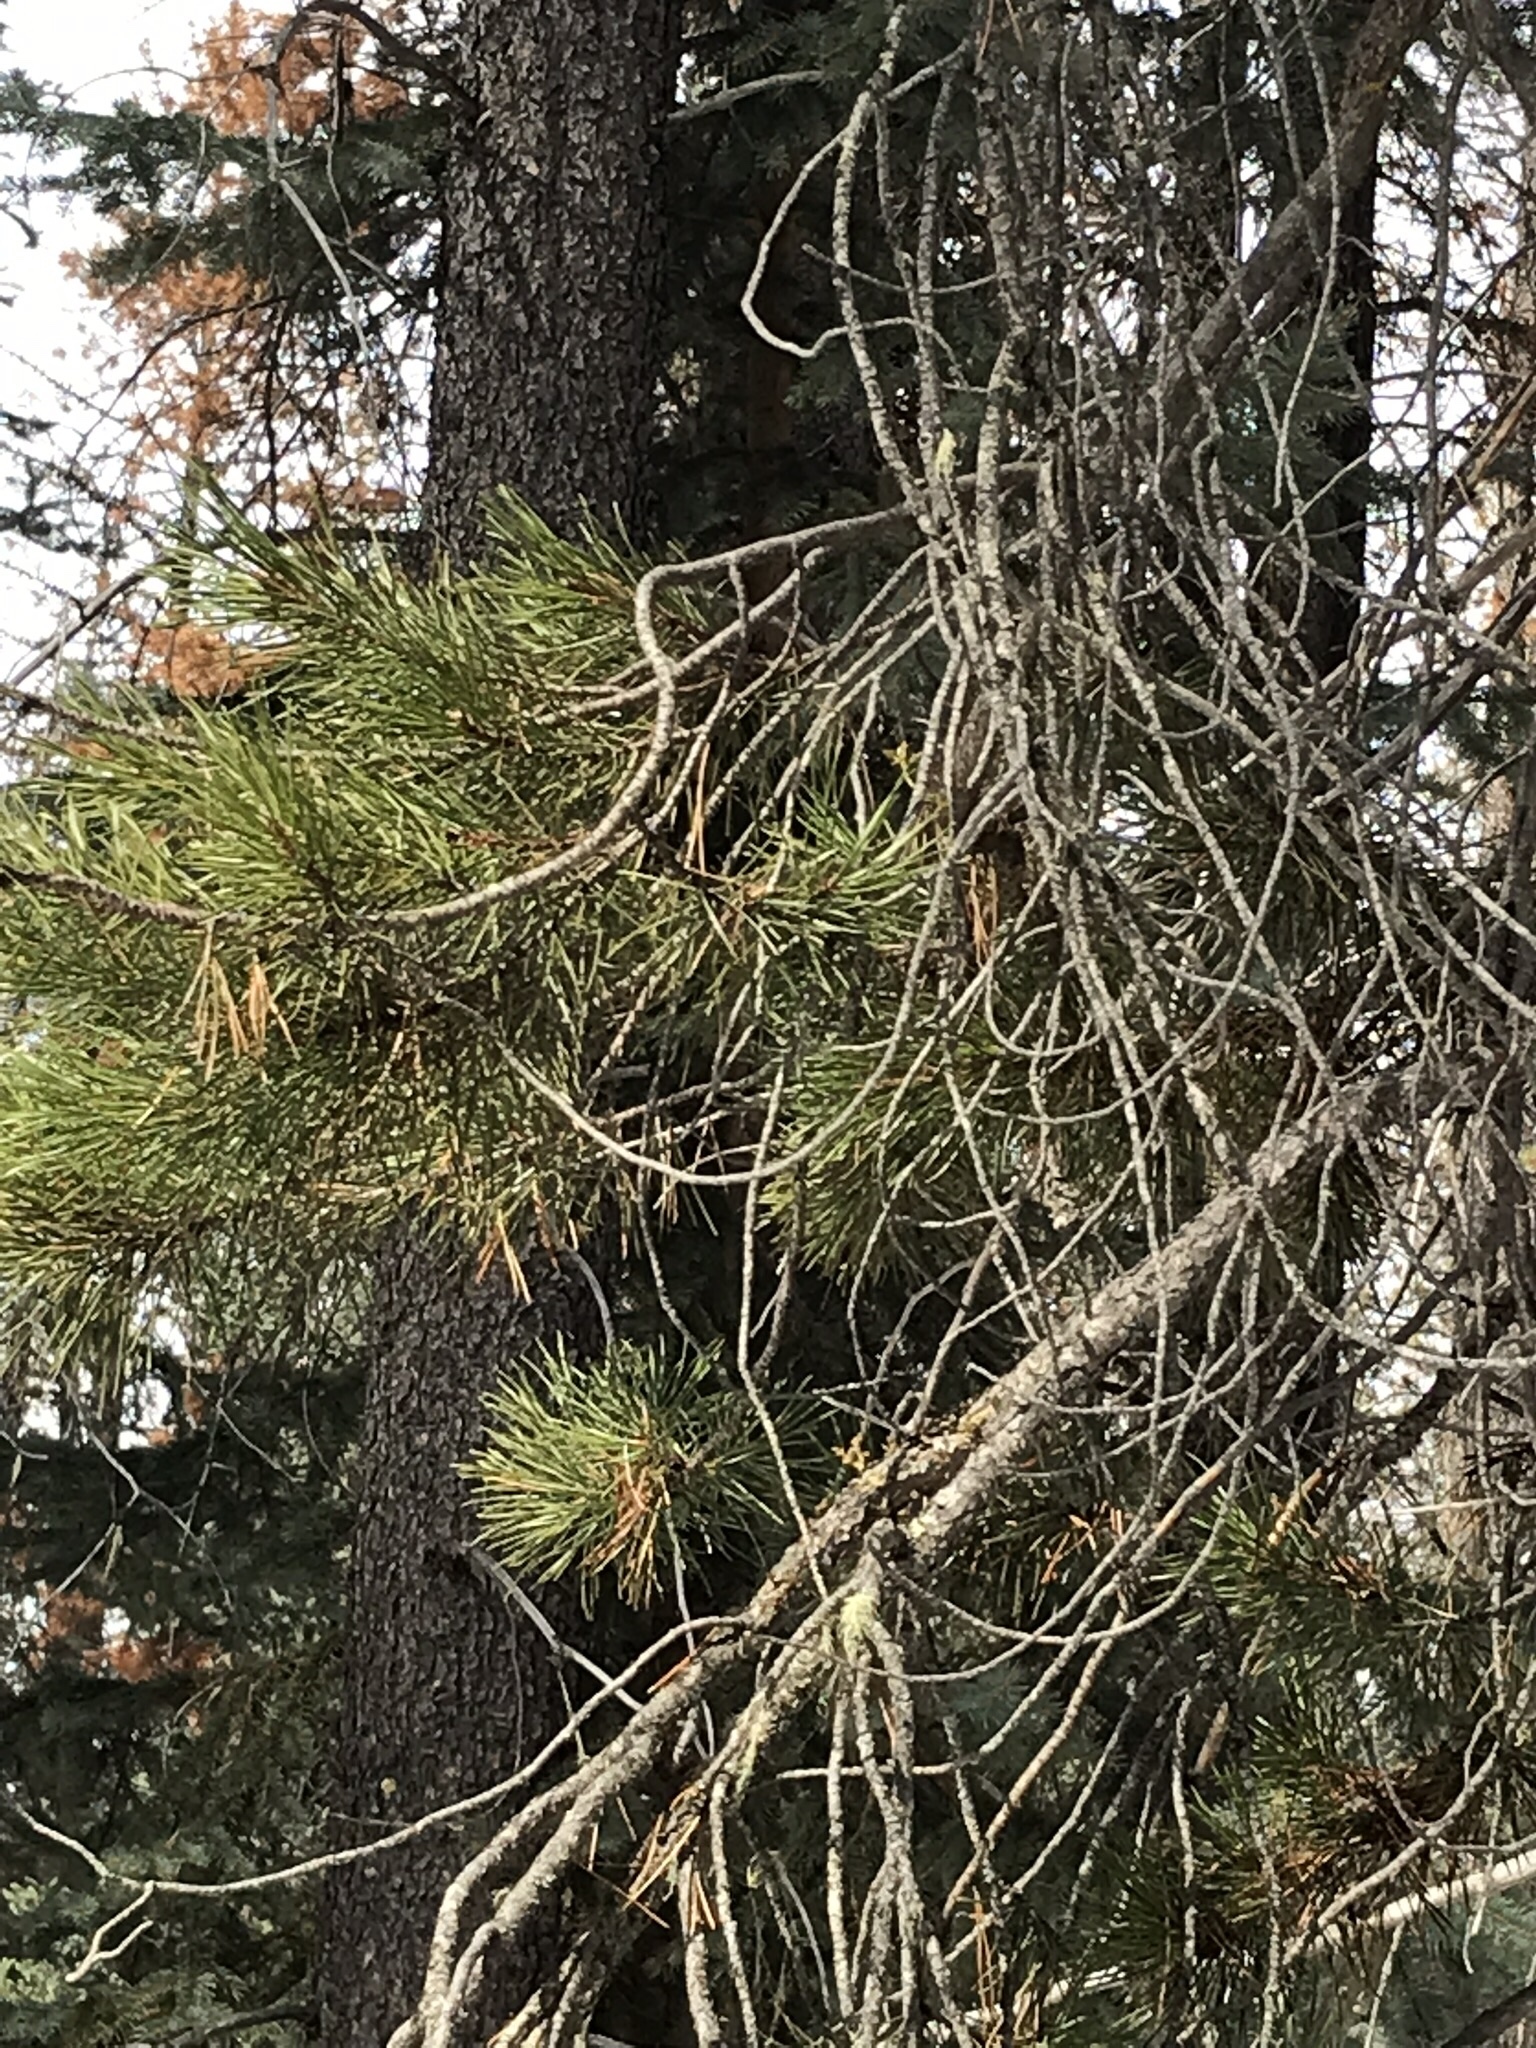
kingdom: Plantae
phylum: Tracheophyta
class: Magnoliopsida
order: Santalales
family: Viscaceae
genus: Arceuthobium
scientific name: Arceuthobium americanum
